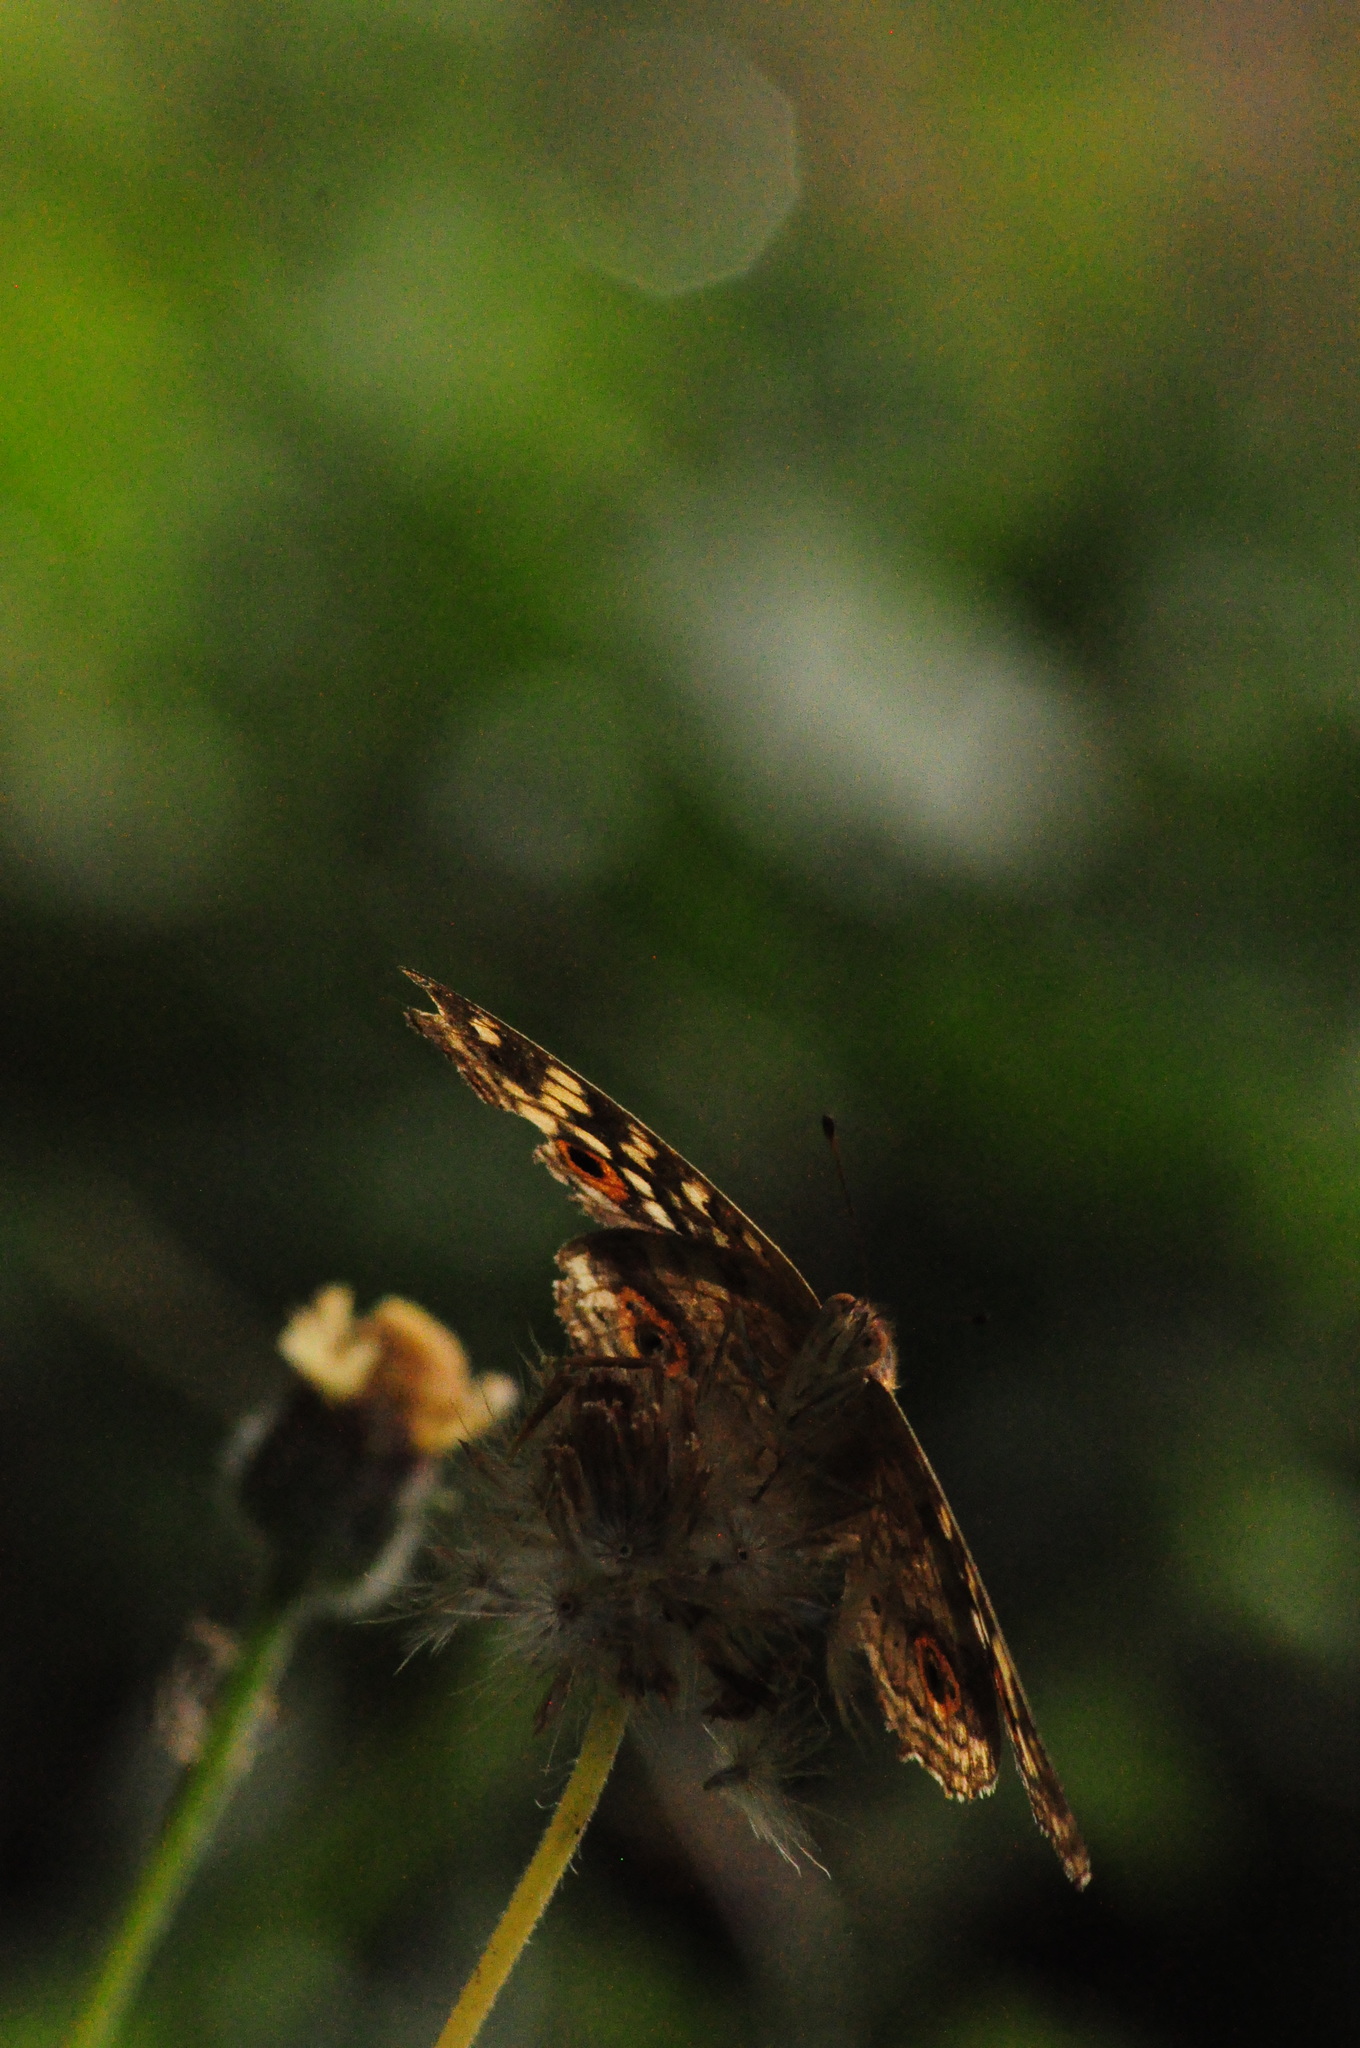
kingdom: Animalia
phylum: Arthropoda
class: Insecta
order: Lepidoptera
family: Nymphalidae
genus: Junonia
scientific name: Junonia lemonias
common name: Lemon pansy
